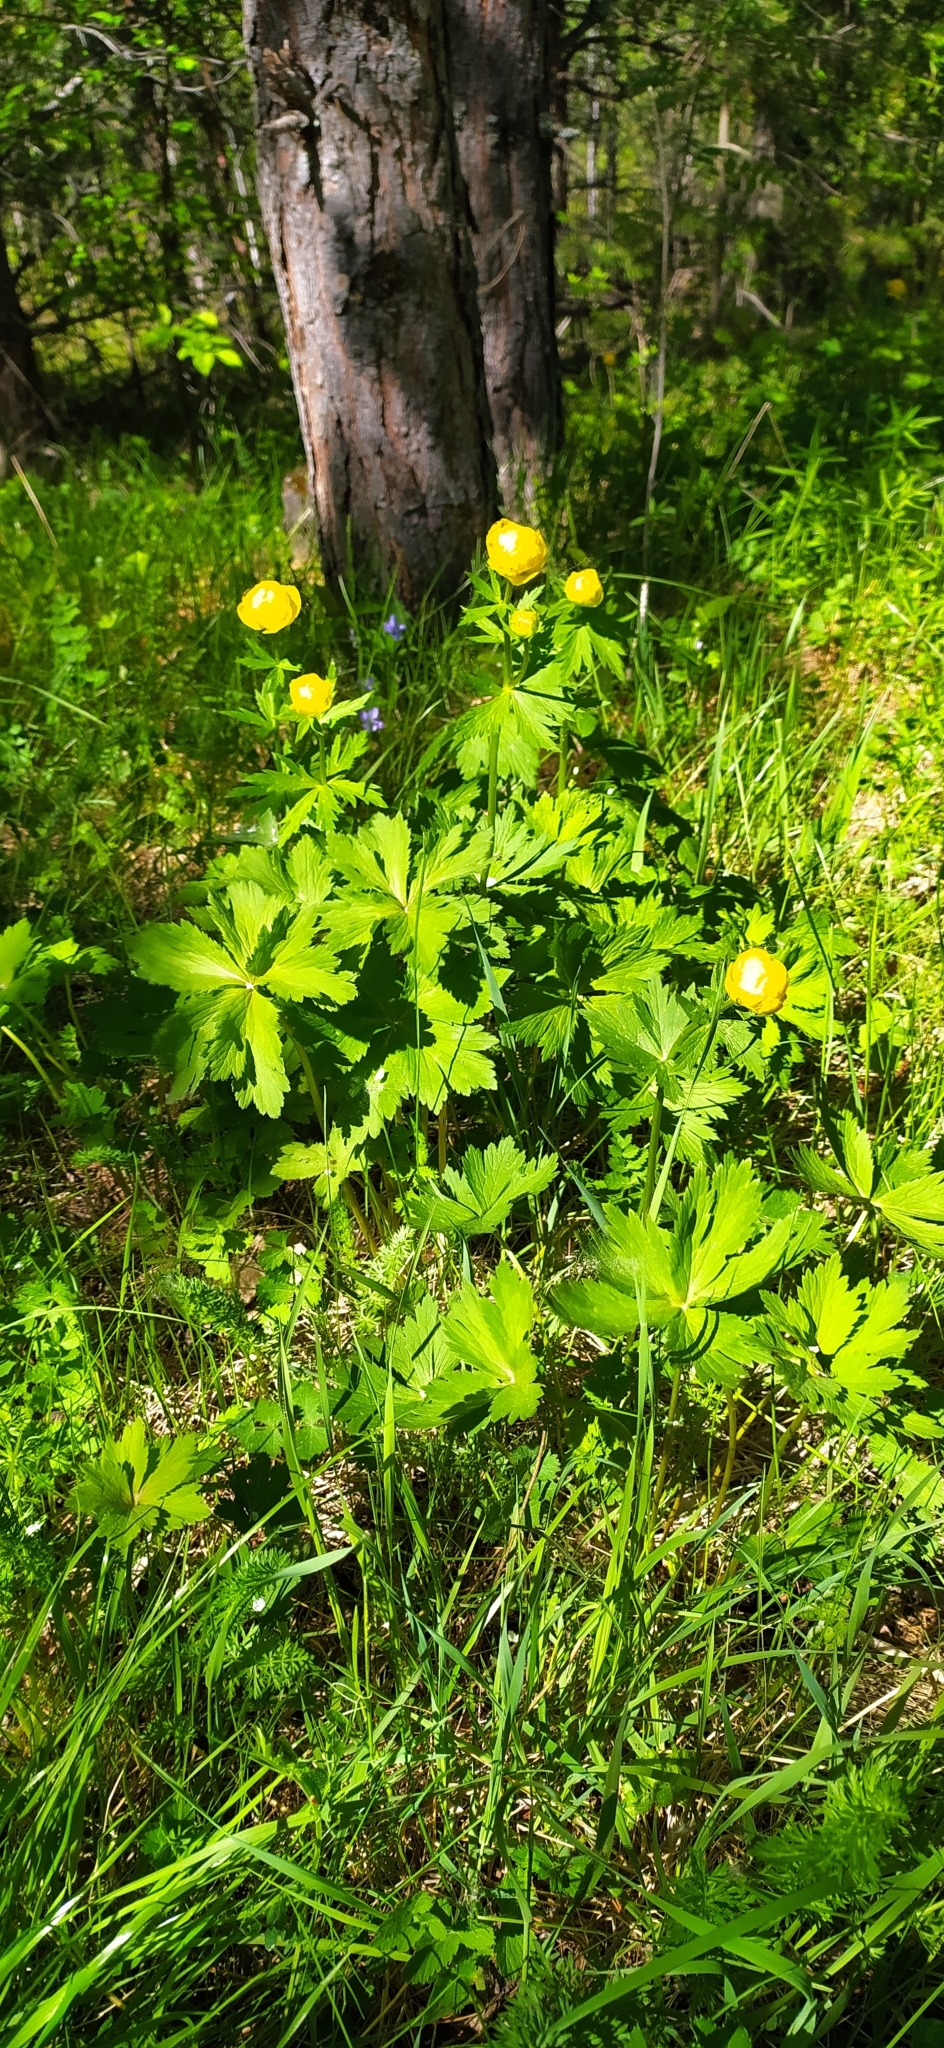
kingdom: Plantae
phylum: Tracheophyta
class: Magnoliopsida
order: Ranunculales
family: Ranunculaceae
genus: Trollius
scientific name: Trollius europaeus
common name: European globeflower
